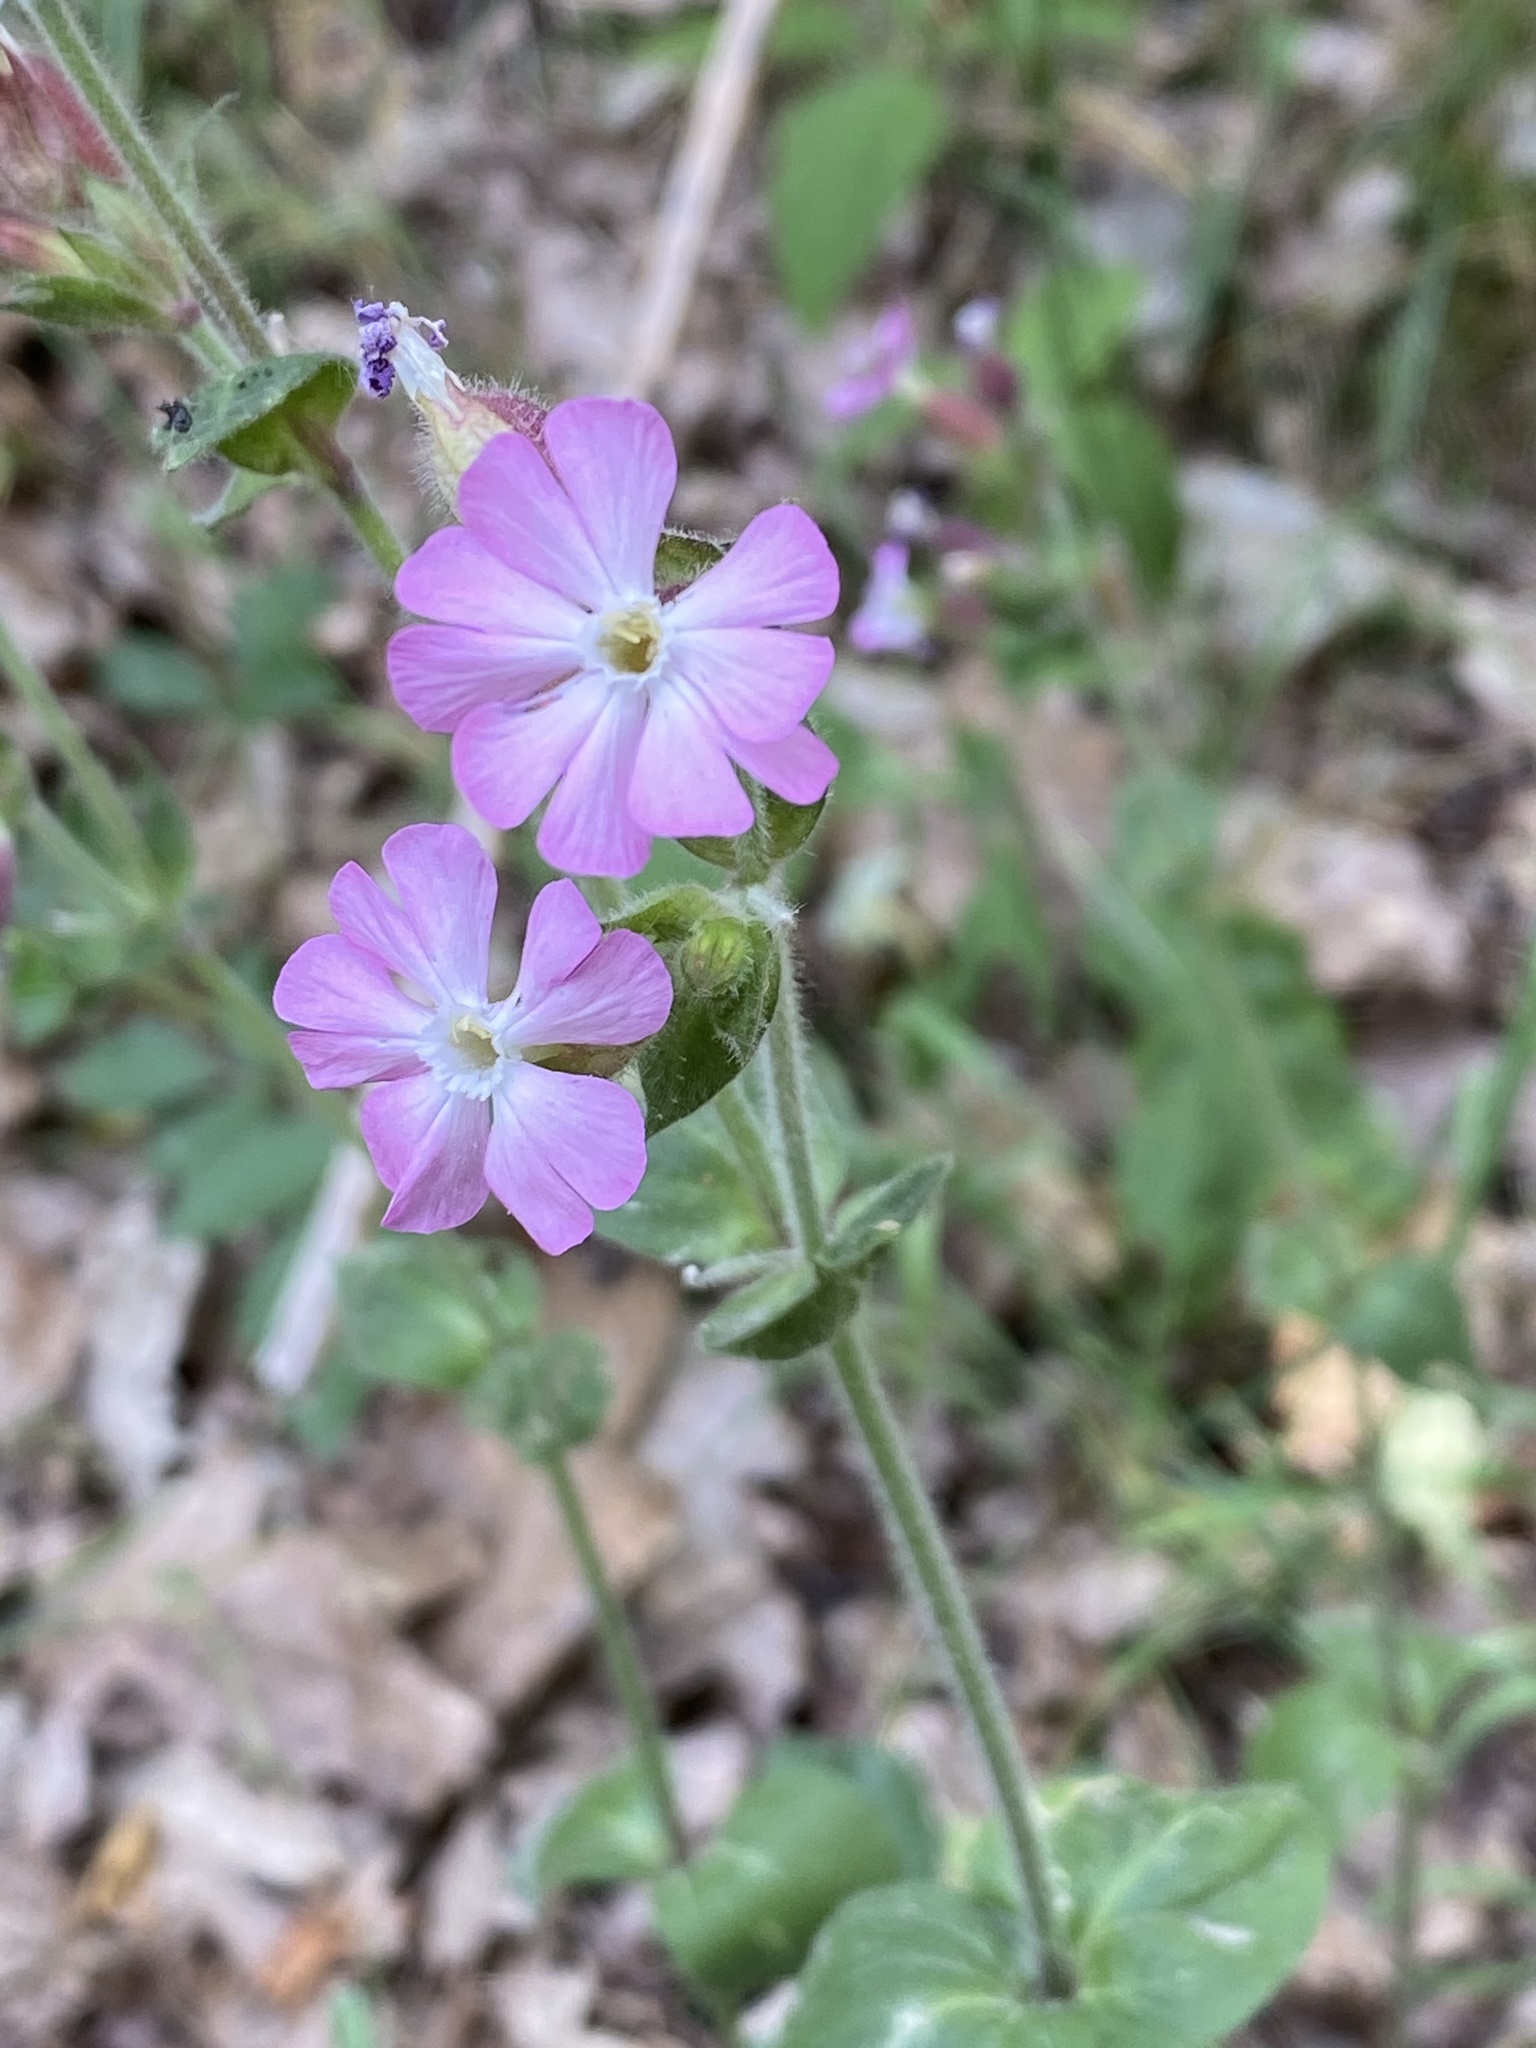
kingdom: Plantae
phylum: Tracheophyta
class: Magnoliopsida
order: Caryophyllales
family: Caryophyllaceae
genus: Silene
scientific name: Silene dioica
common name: Red campion
